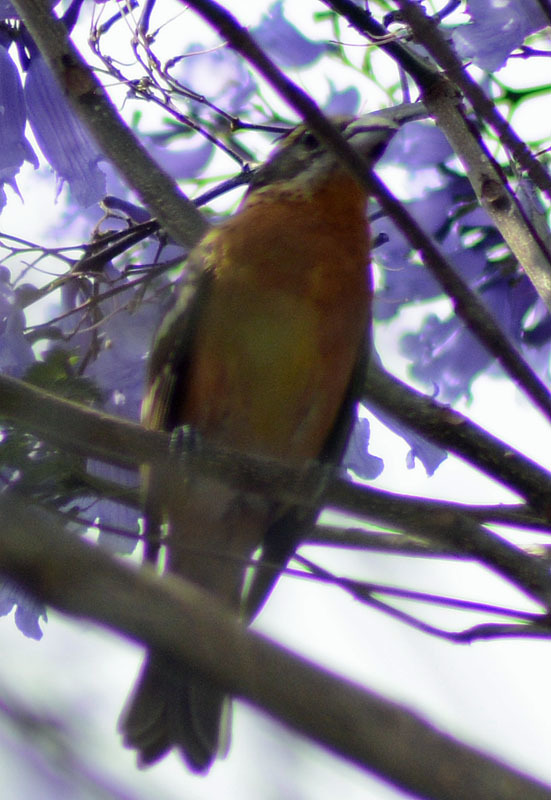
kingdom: Animalia
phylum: Chordata
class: Aves
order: Passeriformes
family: Cardinalidae
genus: Pheucticus
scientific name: Pheucticus melanocephalus
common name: Black-headed grosbeak
